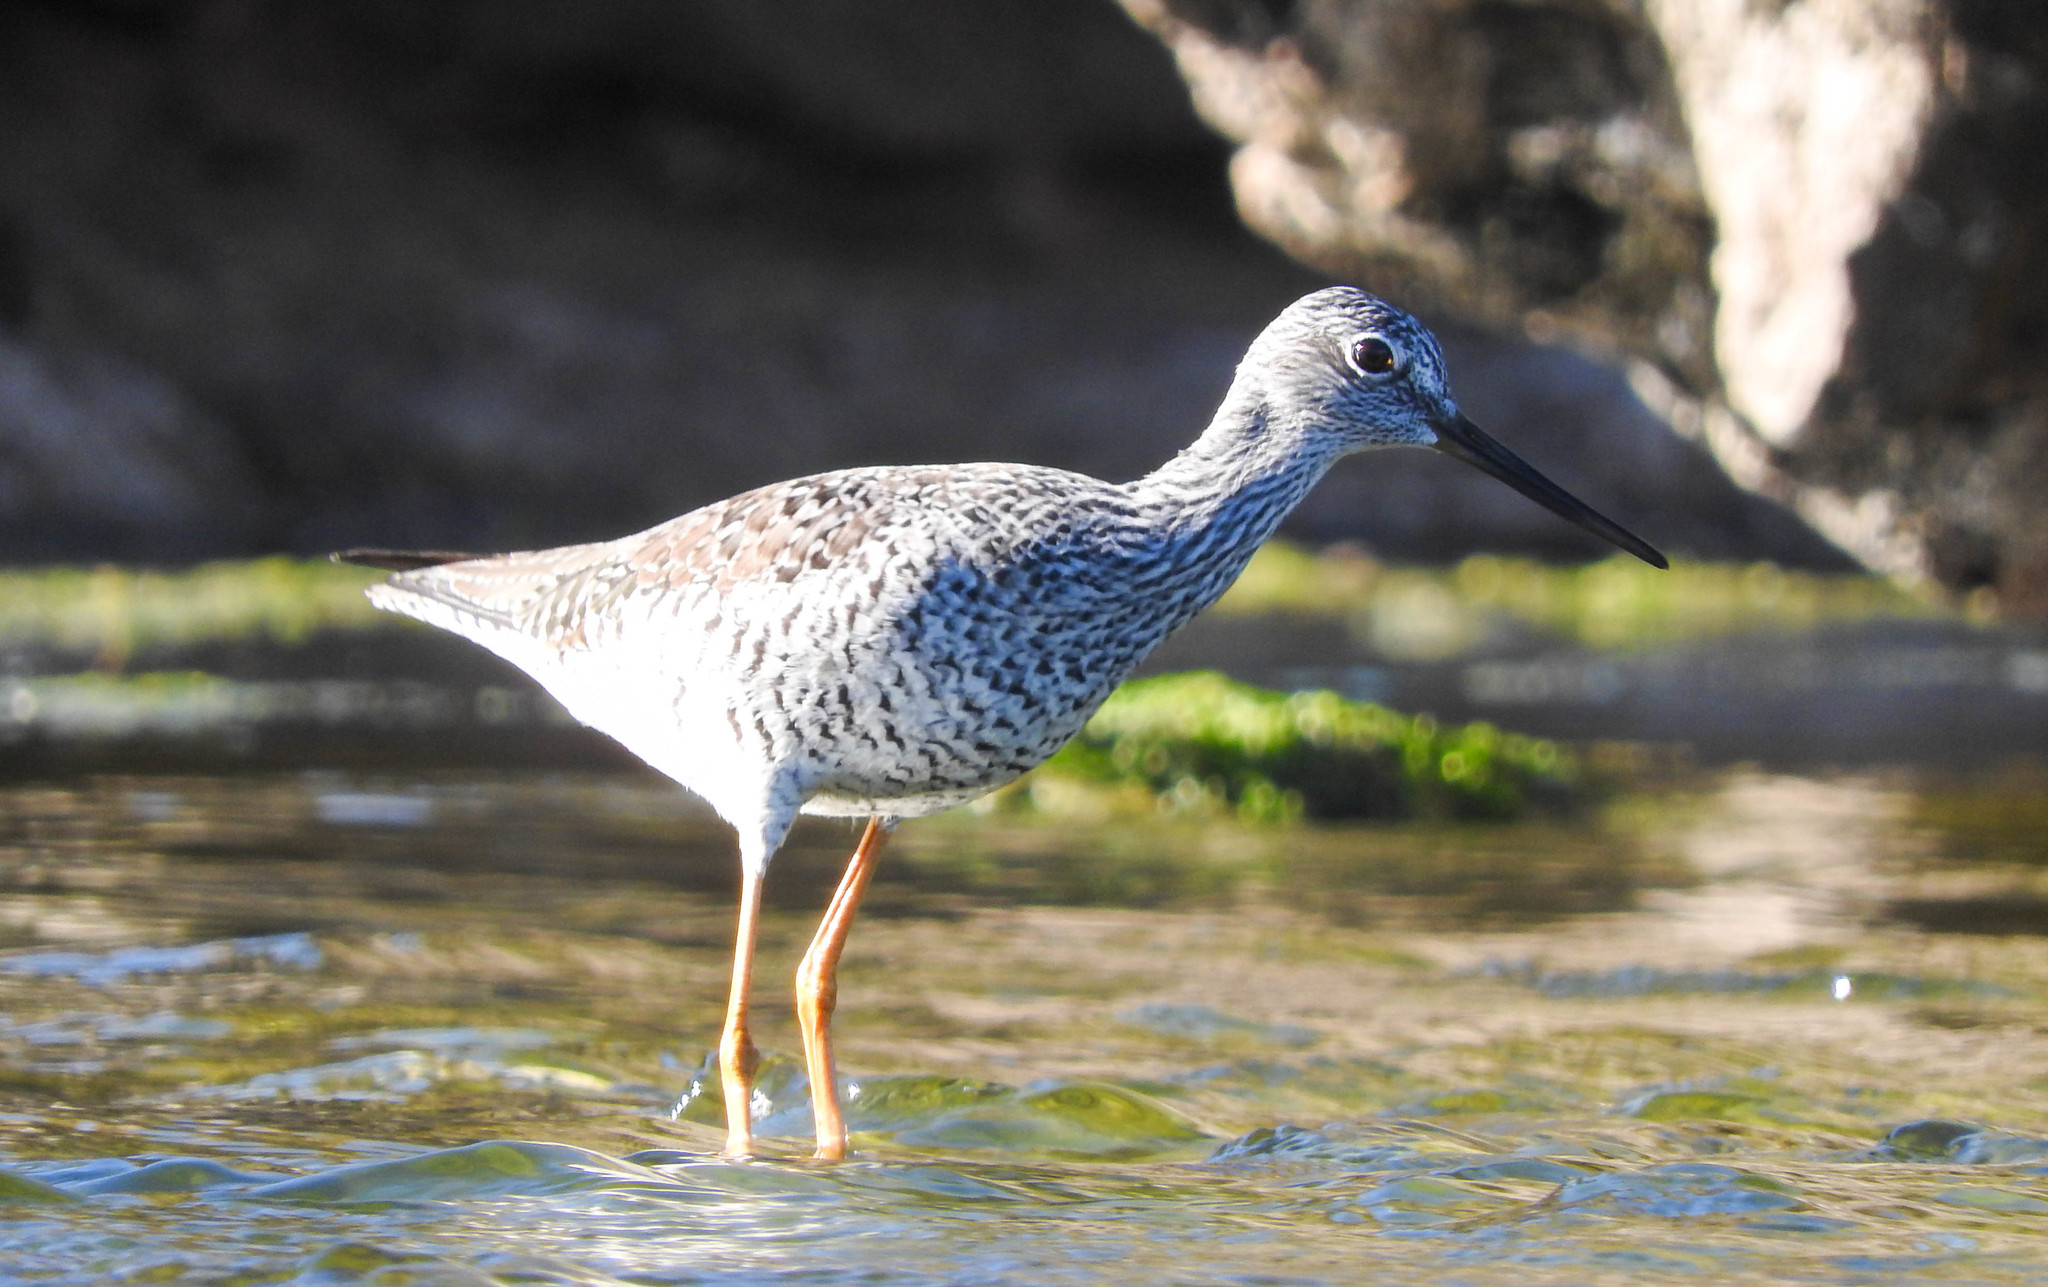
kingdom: Animalia
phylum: Chordata
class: Aves
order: Charadriiformes
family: Scolopacidae
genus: Tringa
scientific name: Tringa melanoleuca
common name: Greater yellowlegs
